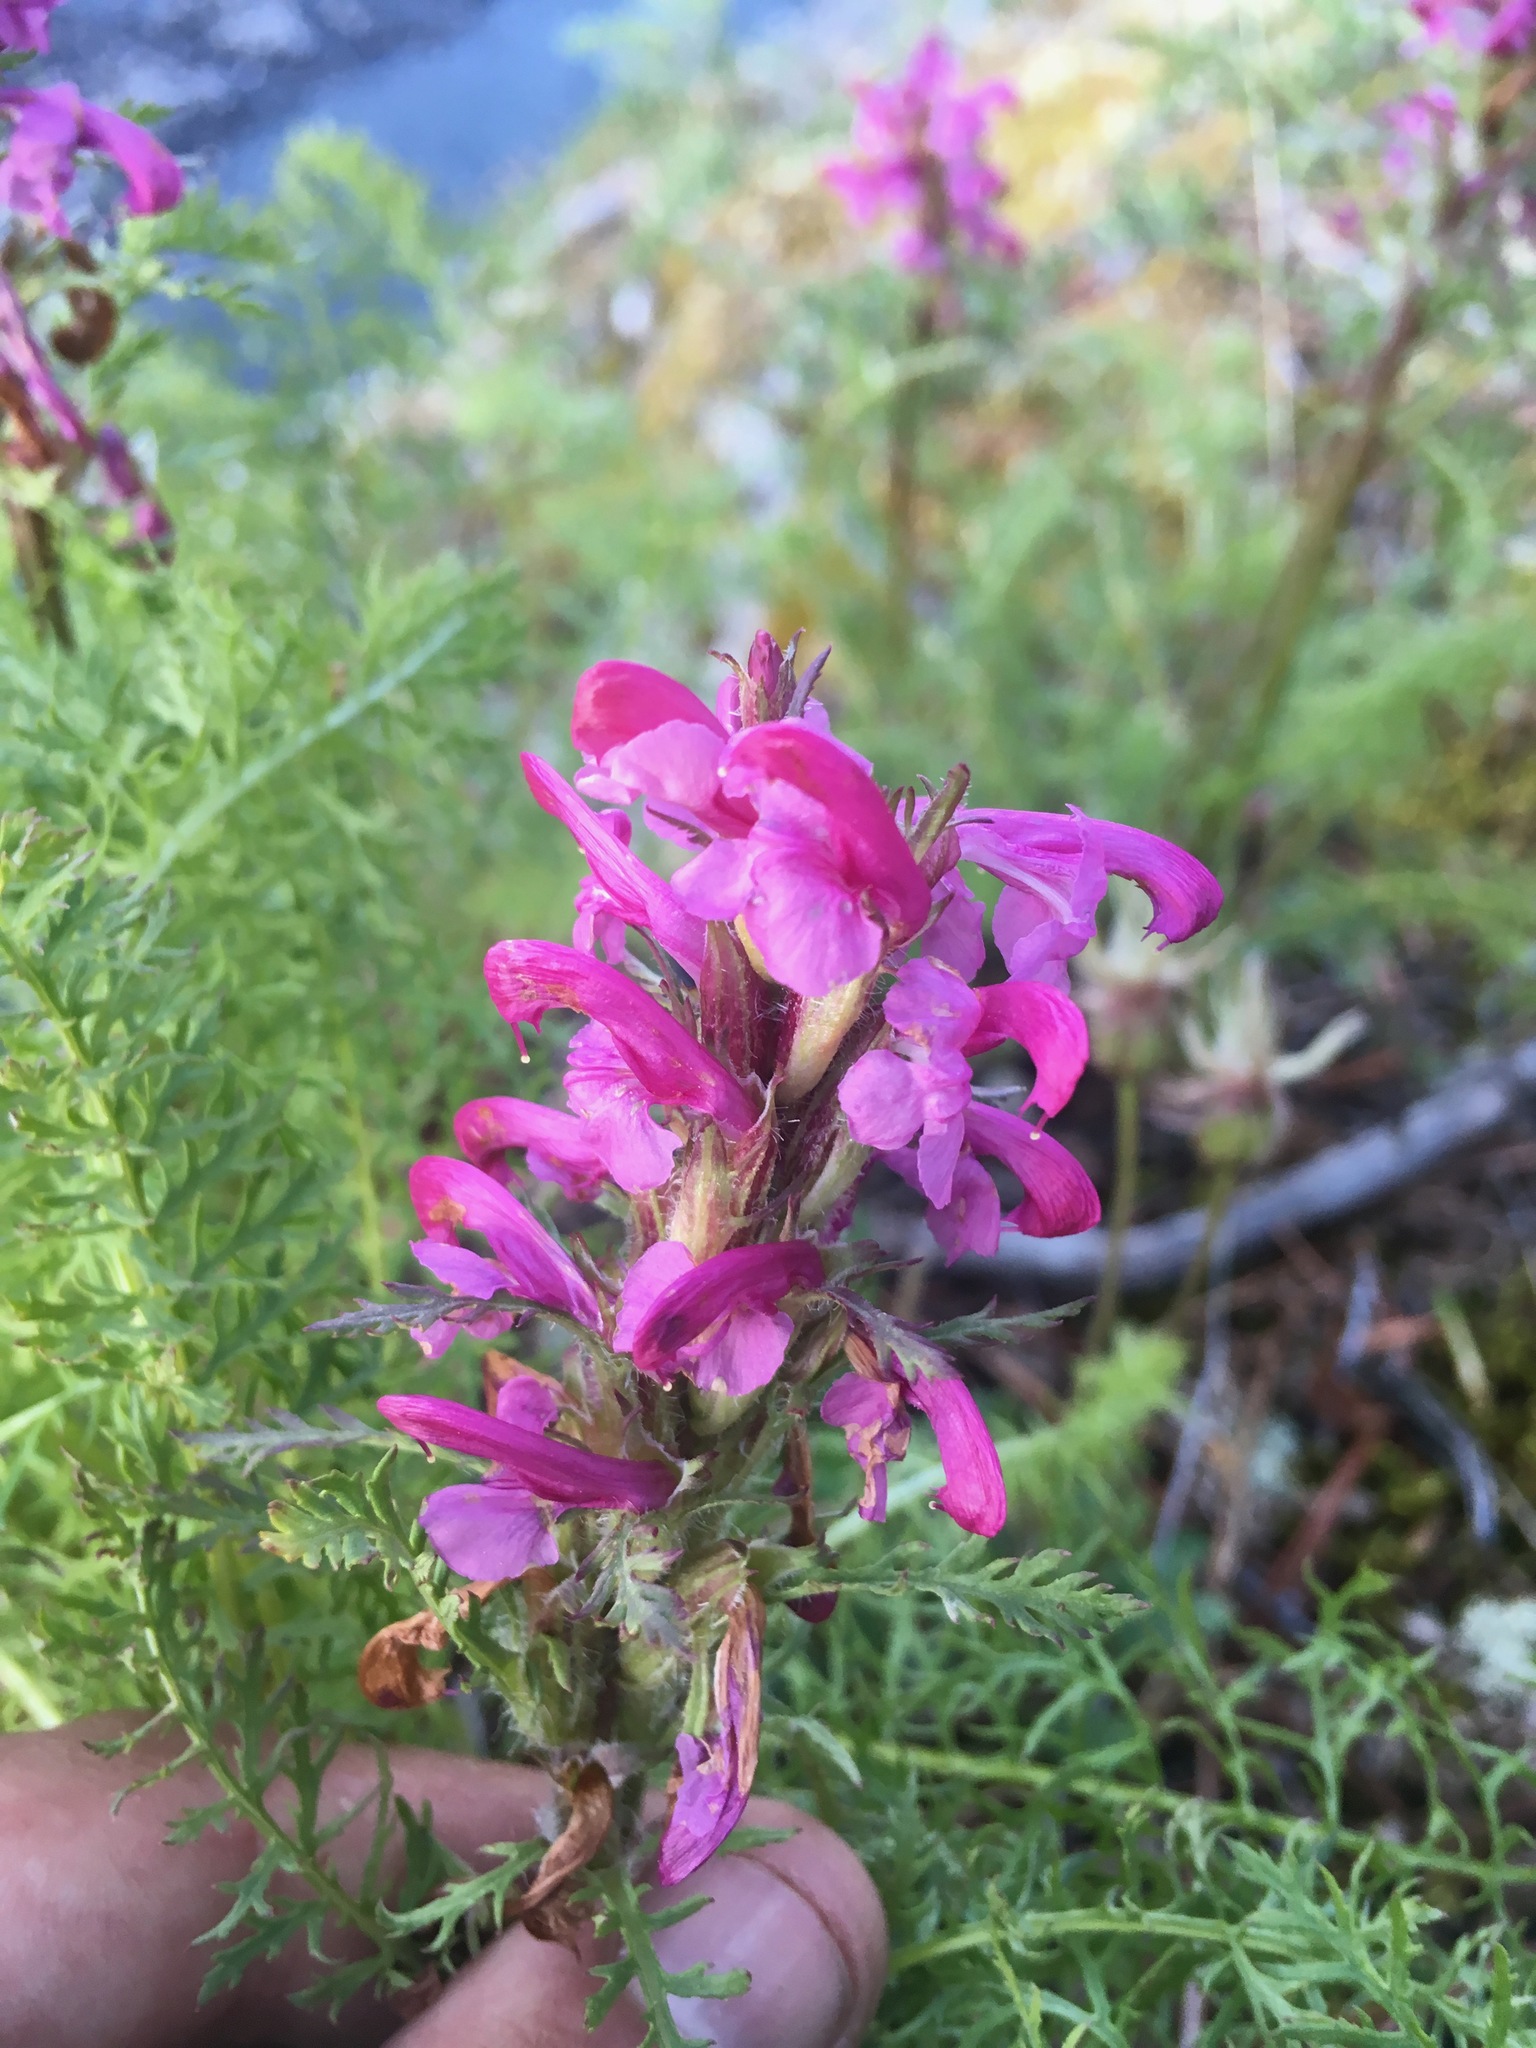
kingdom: Plantae
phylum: Tracheophyta
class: Magnoliopsida
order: Lamiales
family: Orobanchaceae
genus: Pedicularis
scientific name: Pedicularis rubens
